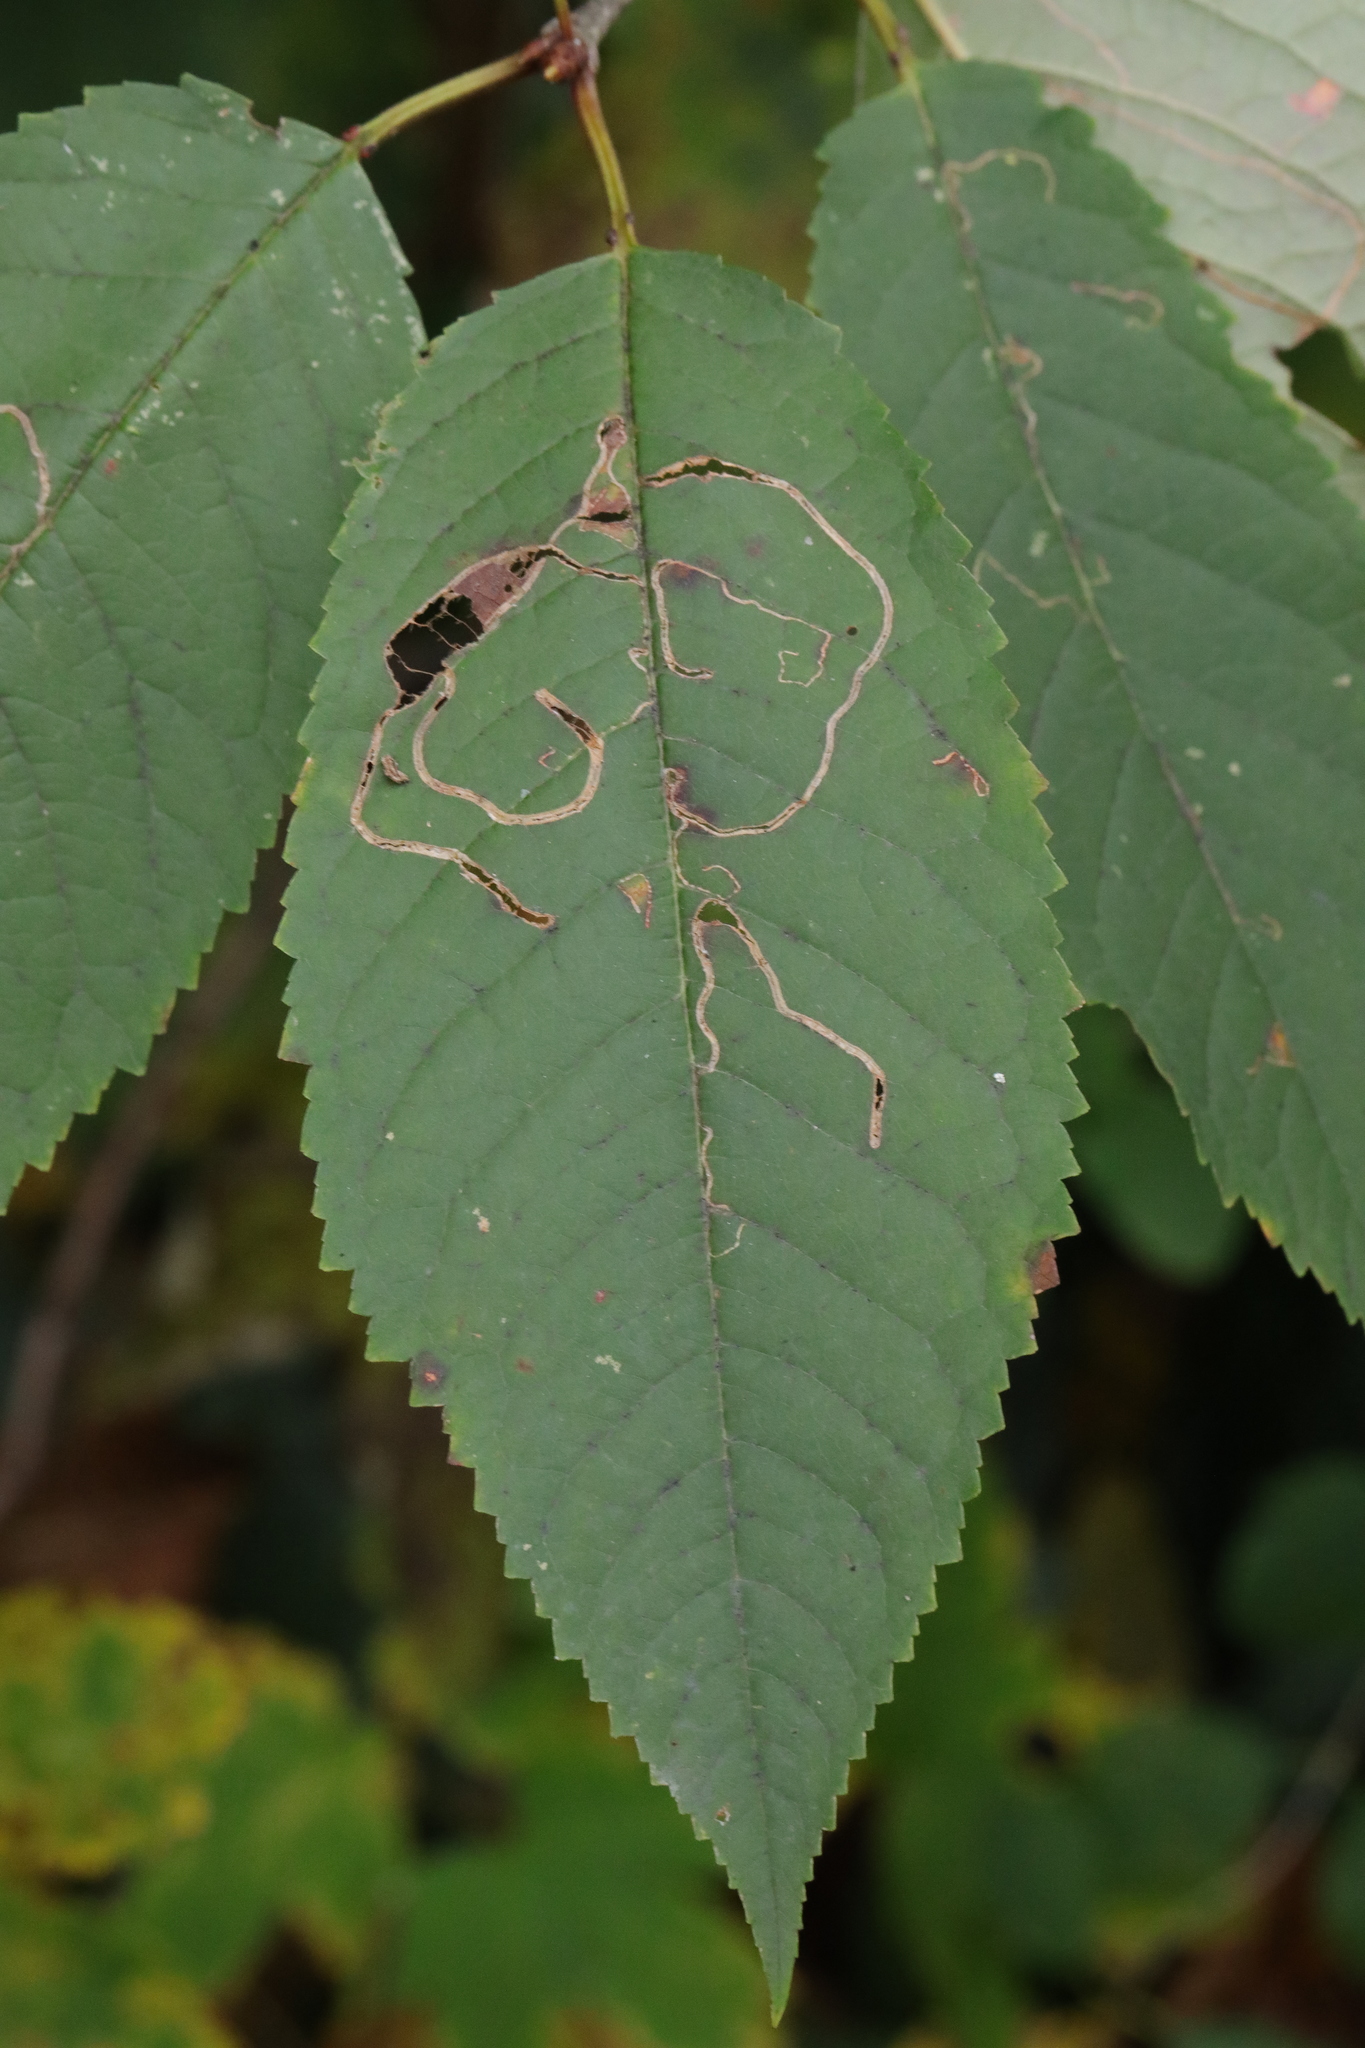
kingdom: Animalia
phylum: Arthropoda
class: Insecta
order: Lepidoptera
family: Lyonetiidae
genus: Lyonetia
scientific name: Lyonetia clerkella
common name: Apple leaf miner
